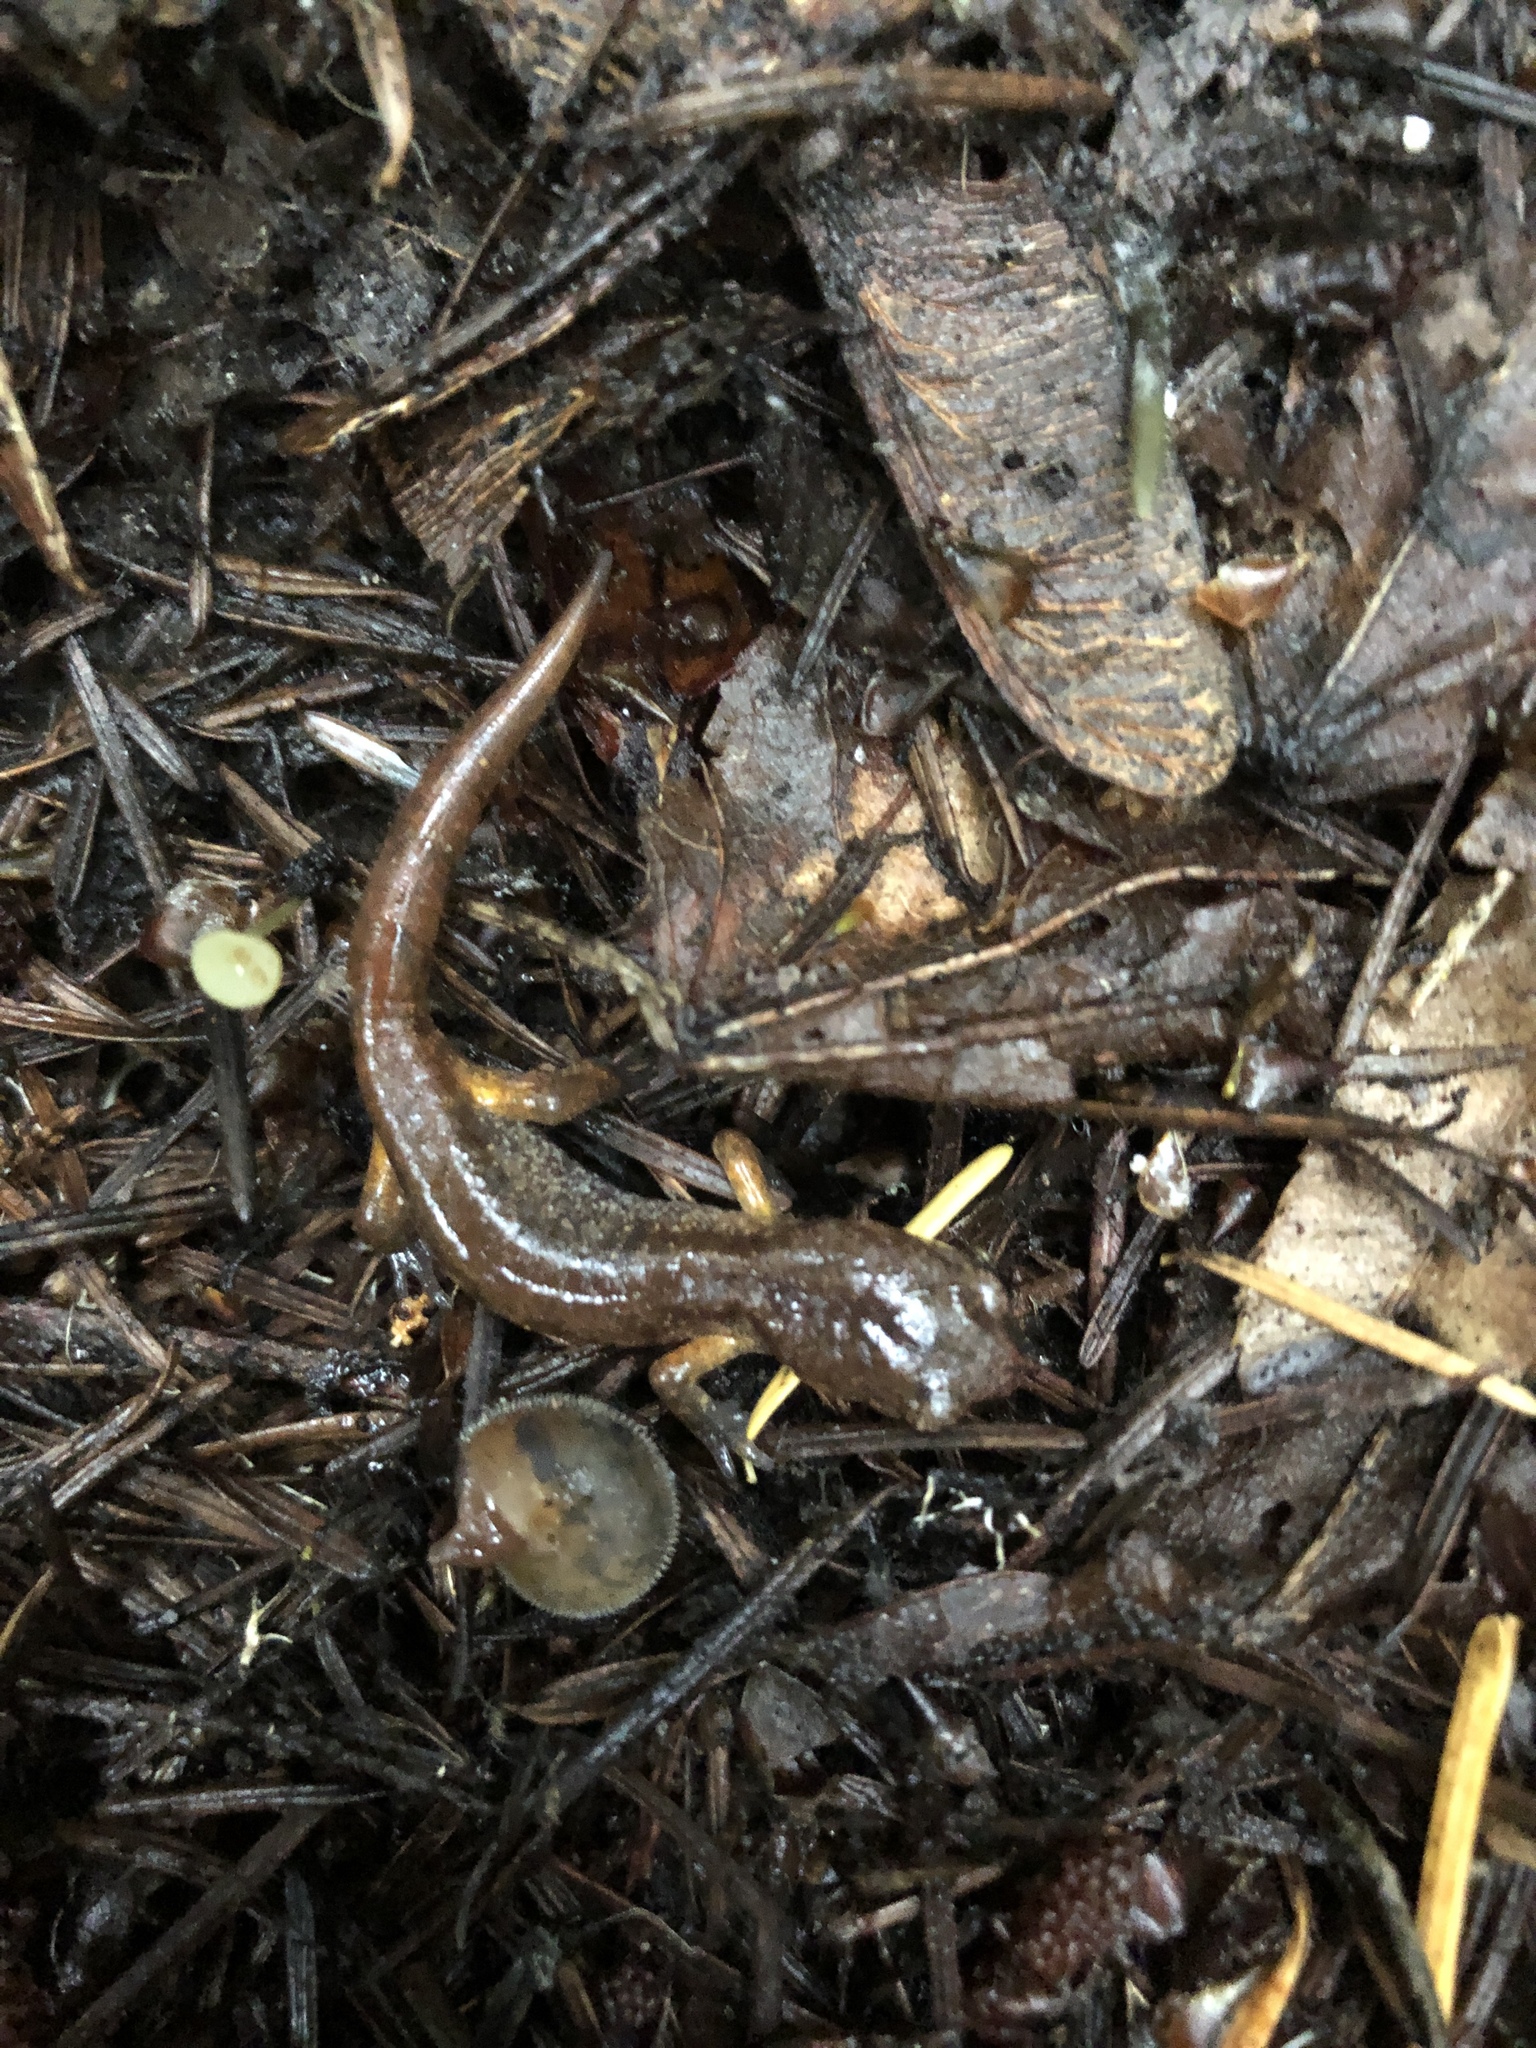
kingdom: Animalia
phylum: Chordata
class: Amphibia
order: Caudata
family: Plethodontidae
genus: Ensatina
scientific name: Ensatina eschscholtzii
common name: Ensatina
